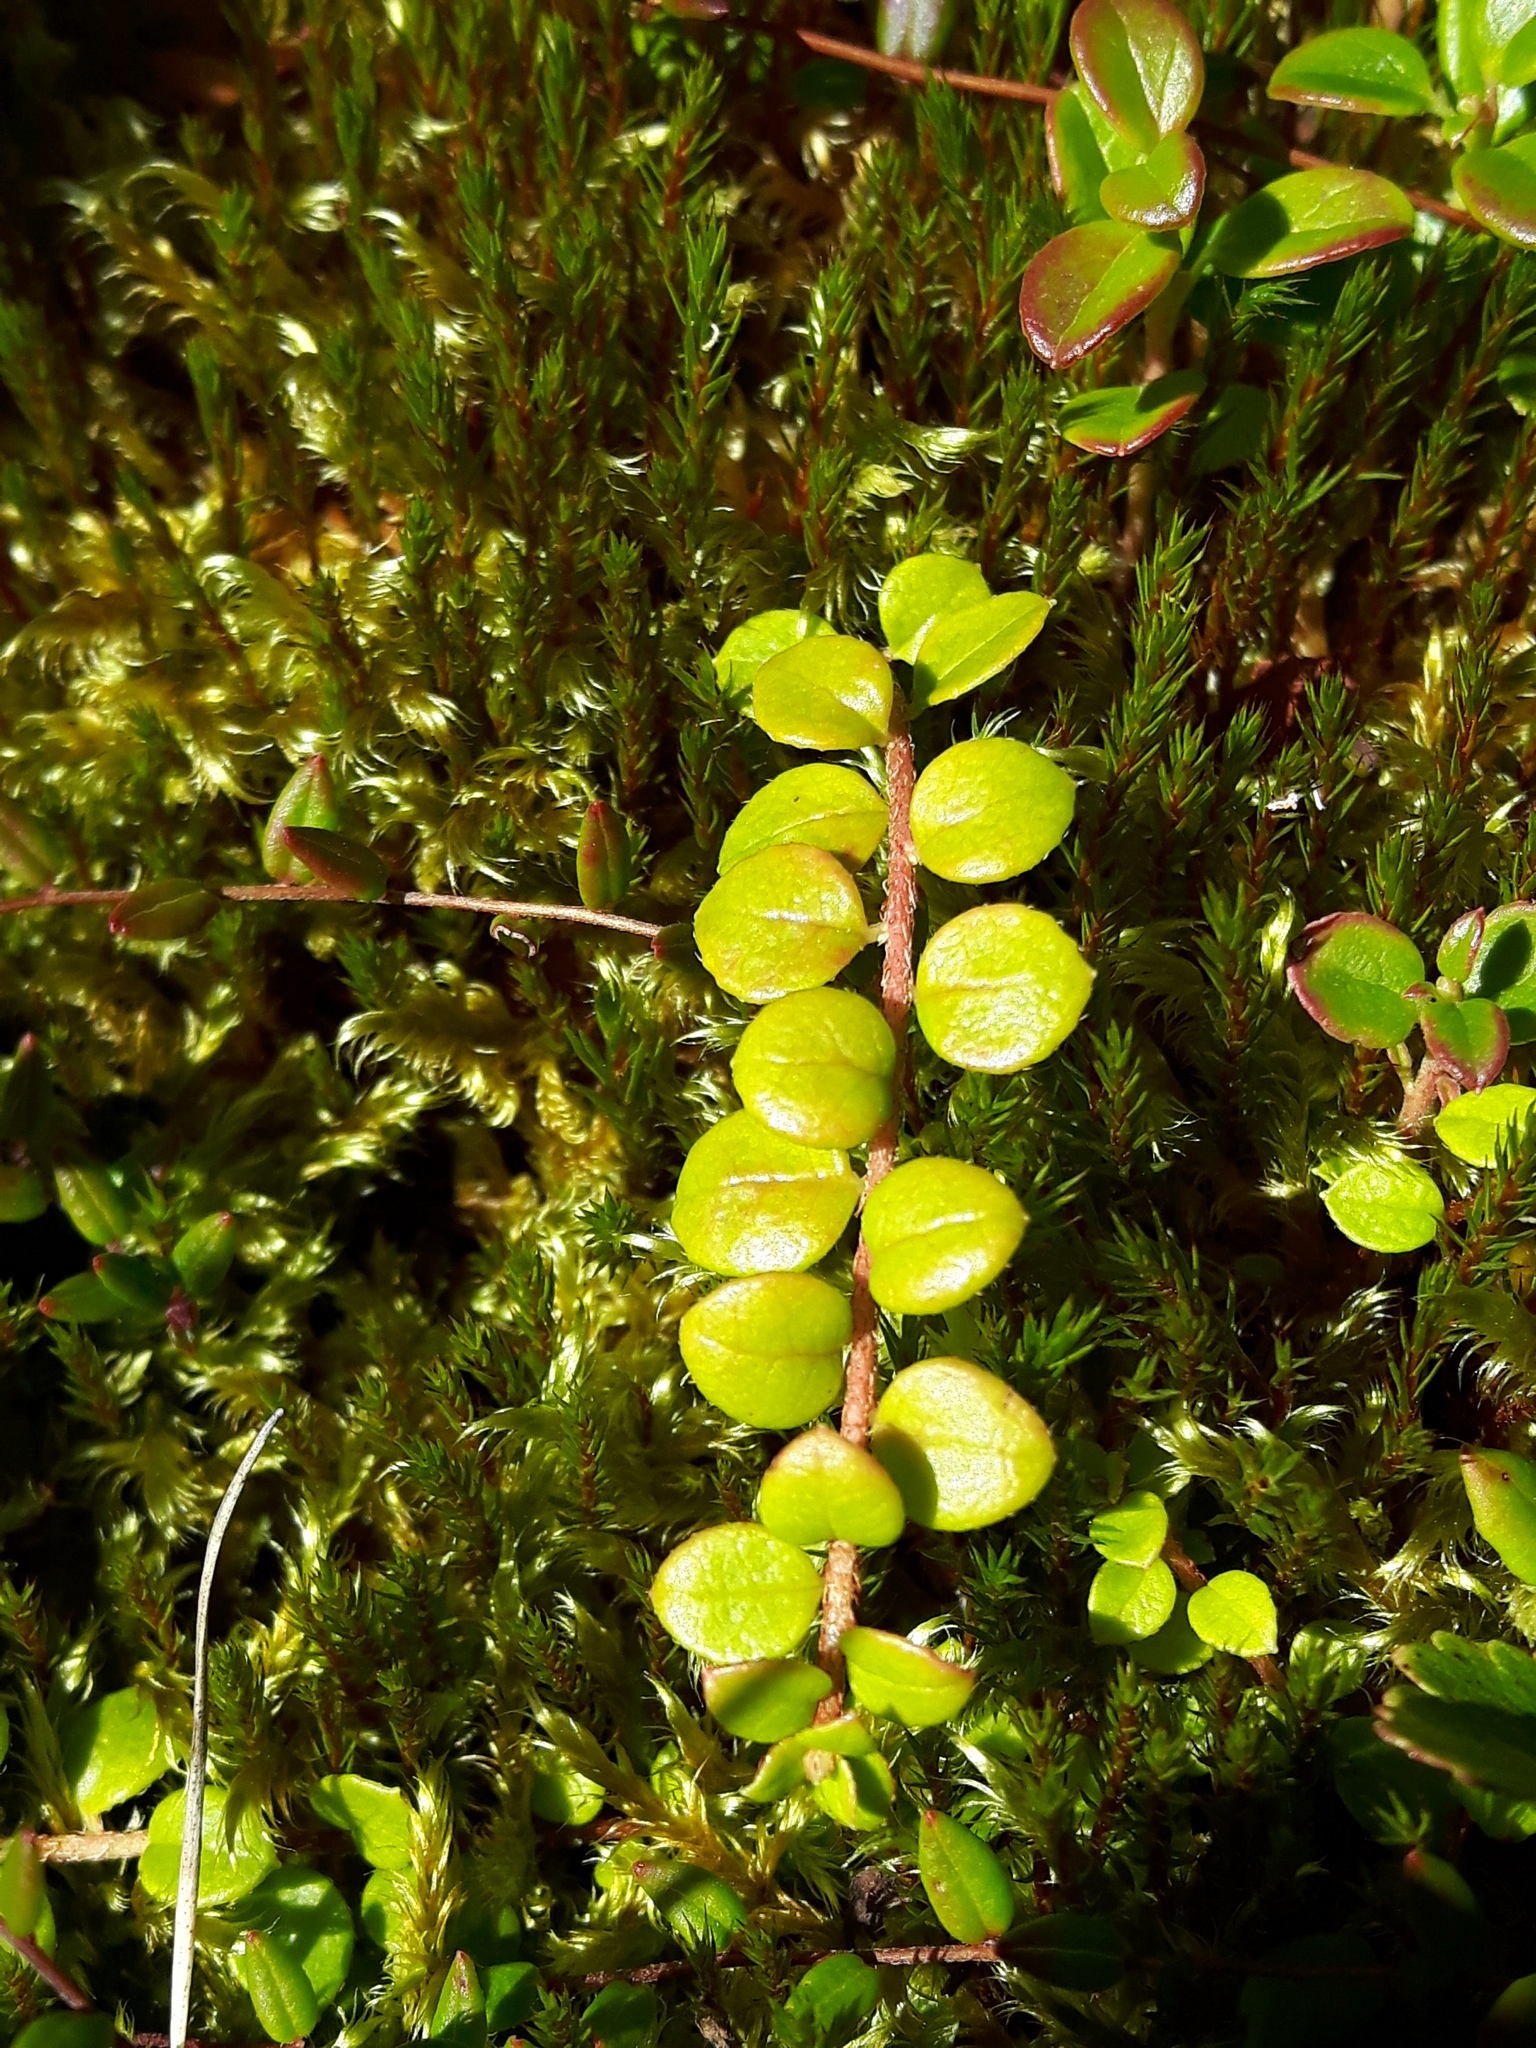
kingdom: Plantae
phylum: Tracheophyta
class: Magnoliopsida
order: Ericales
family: Ericaceae
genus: Gaultheria
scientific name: Gaultheria hispidula
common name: Cancer wintergreen
